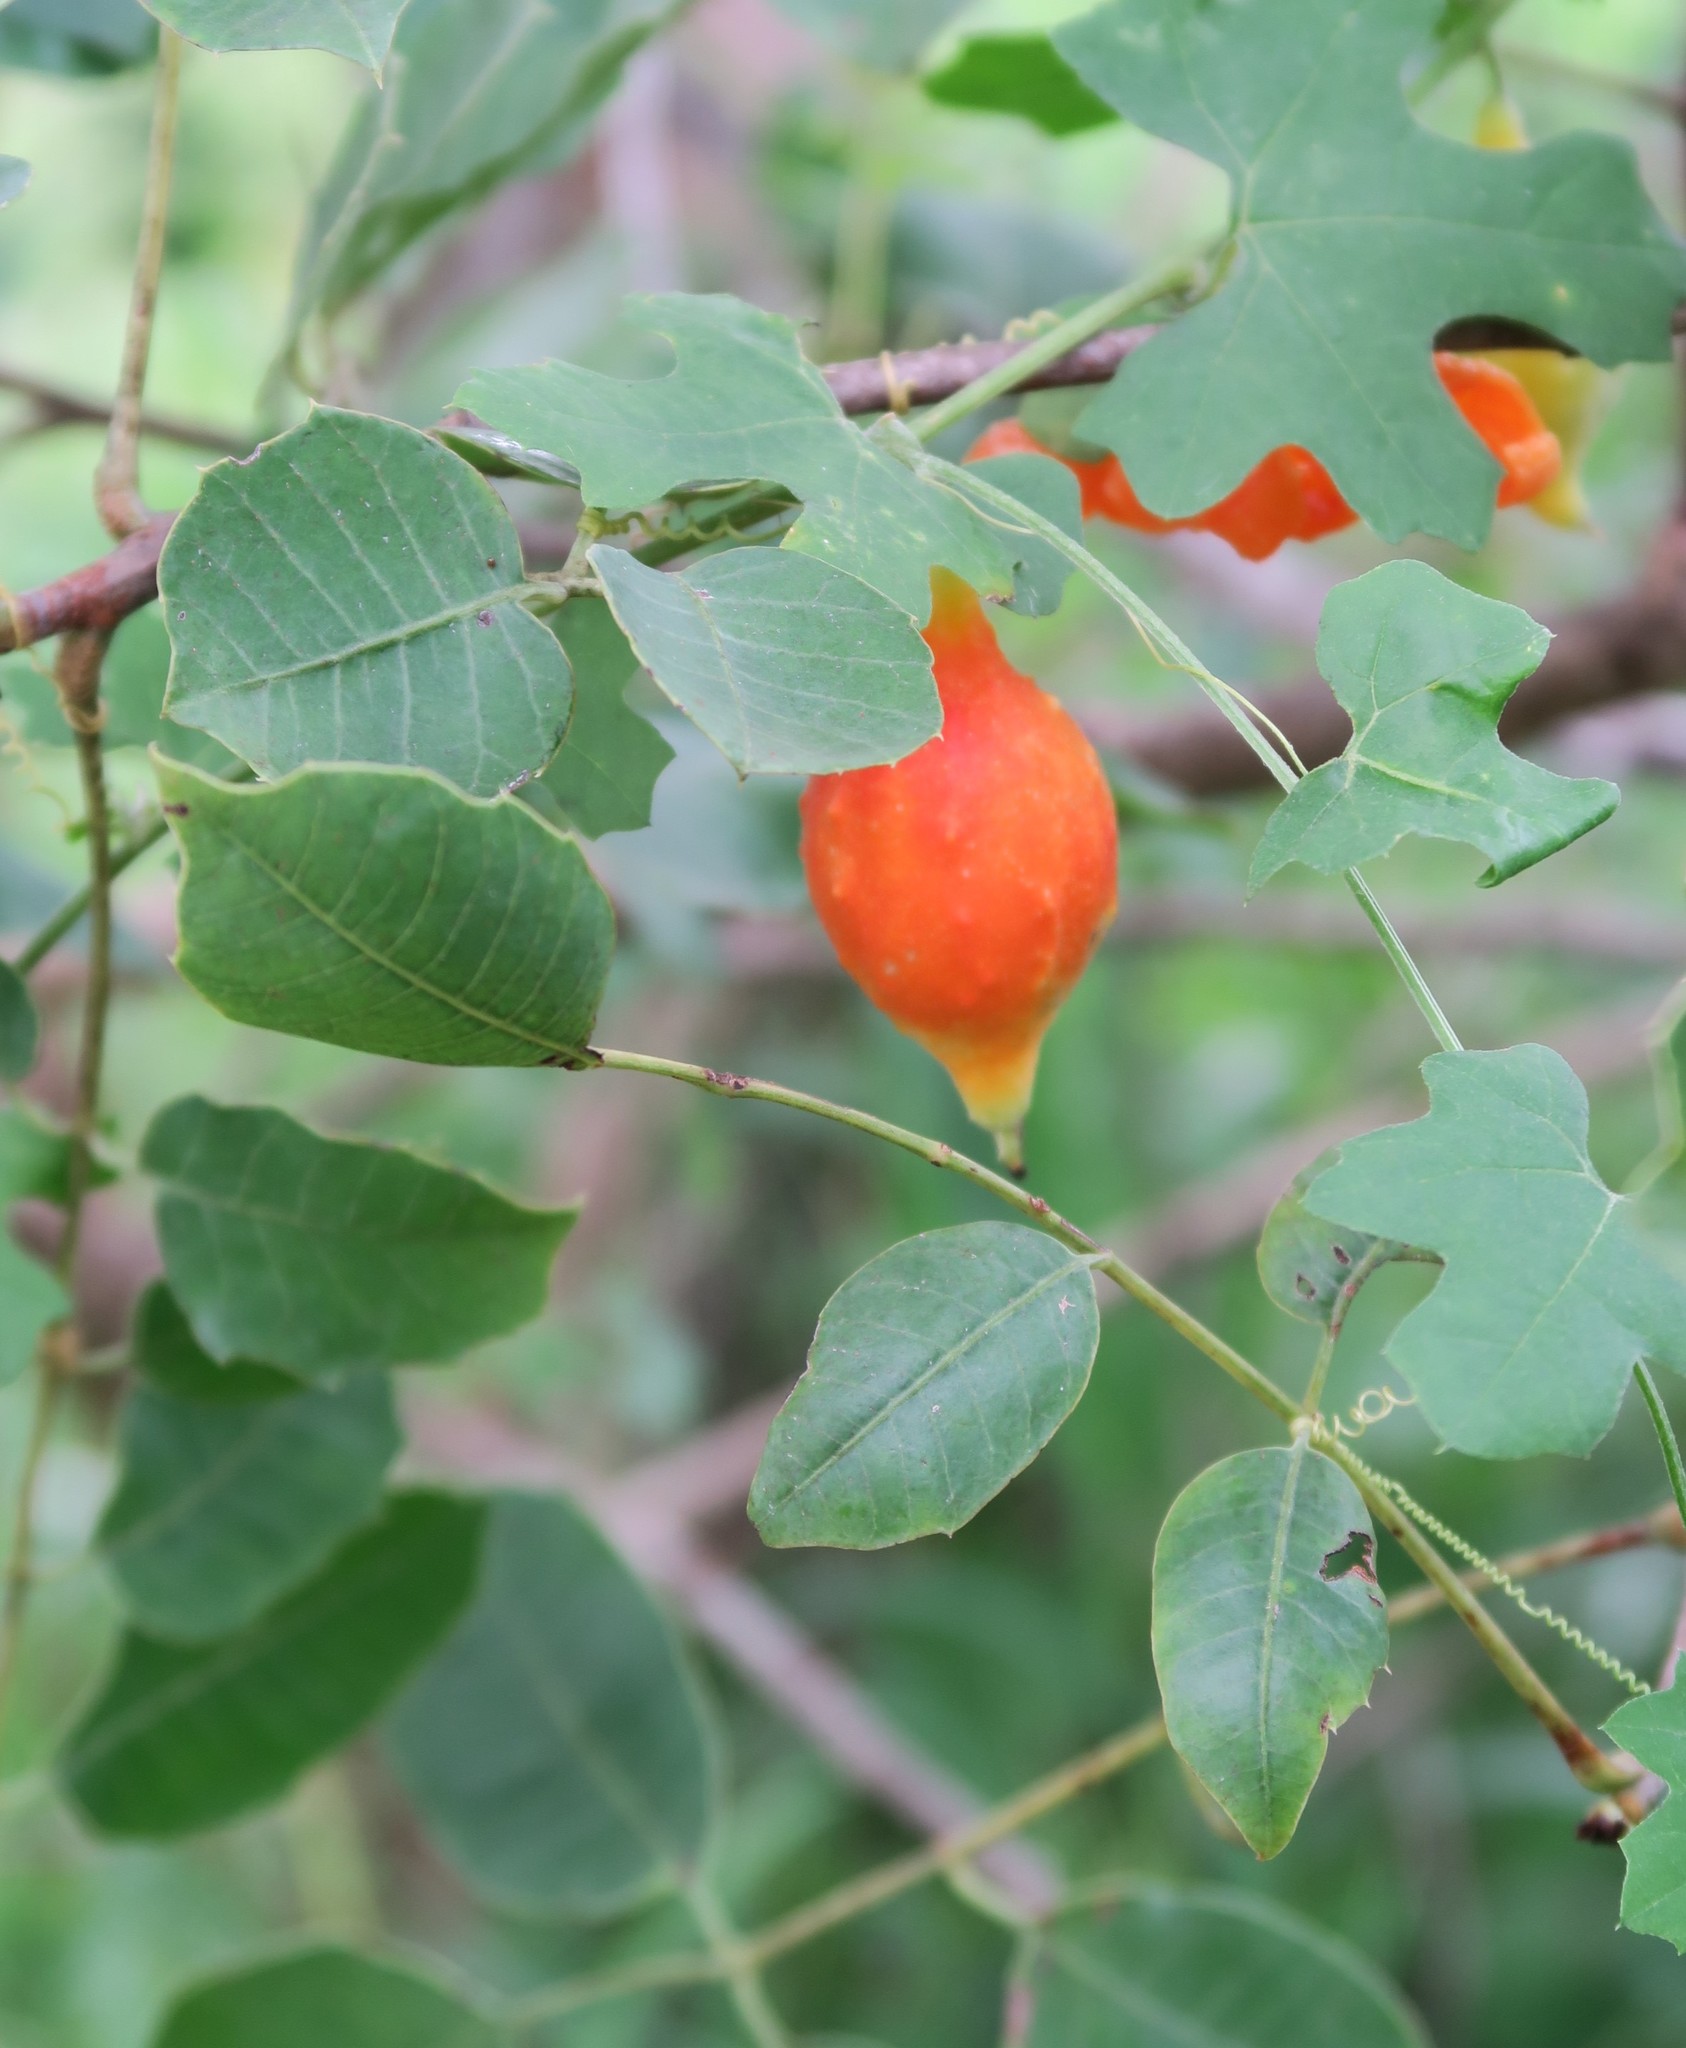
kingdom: Plantae
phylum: Tracheophyta
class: Magnoliopsida
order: Cucurbitales
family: Cucurbitaceae
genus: Momordica
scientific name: Momordica balsamina
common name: Southern balsampear
